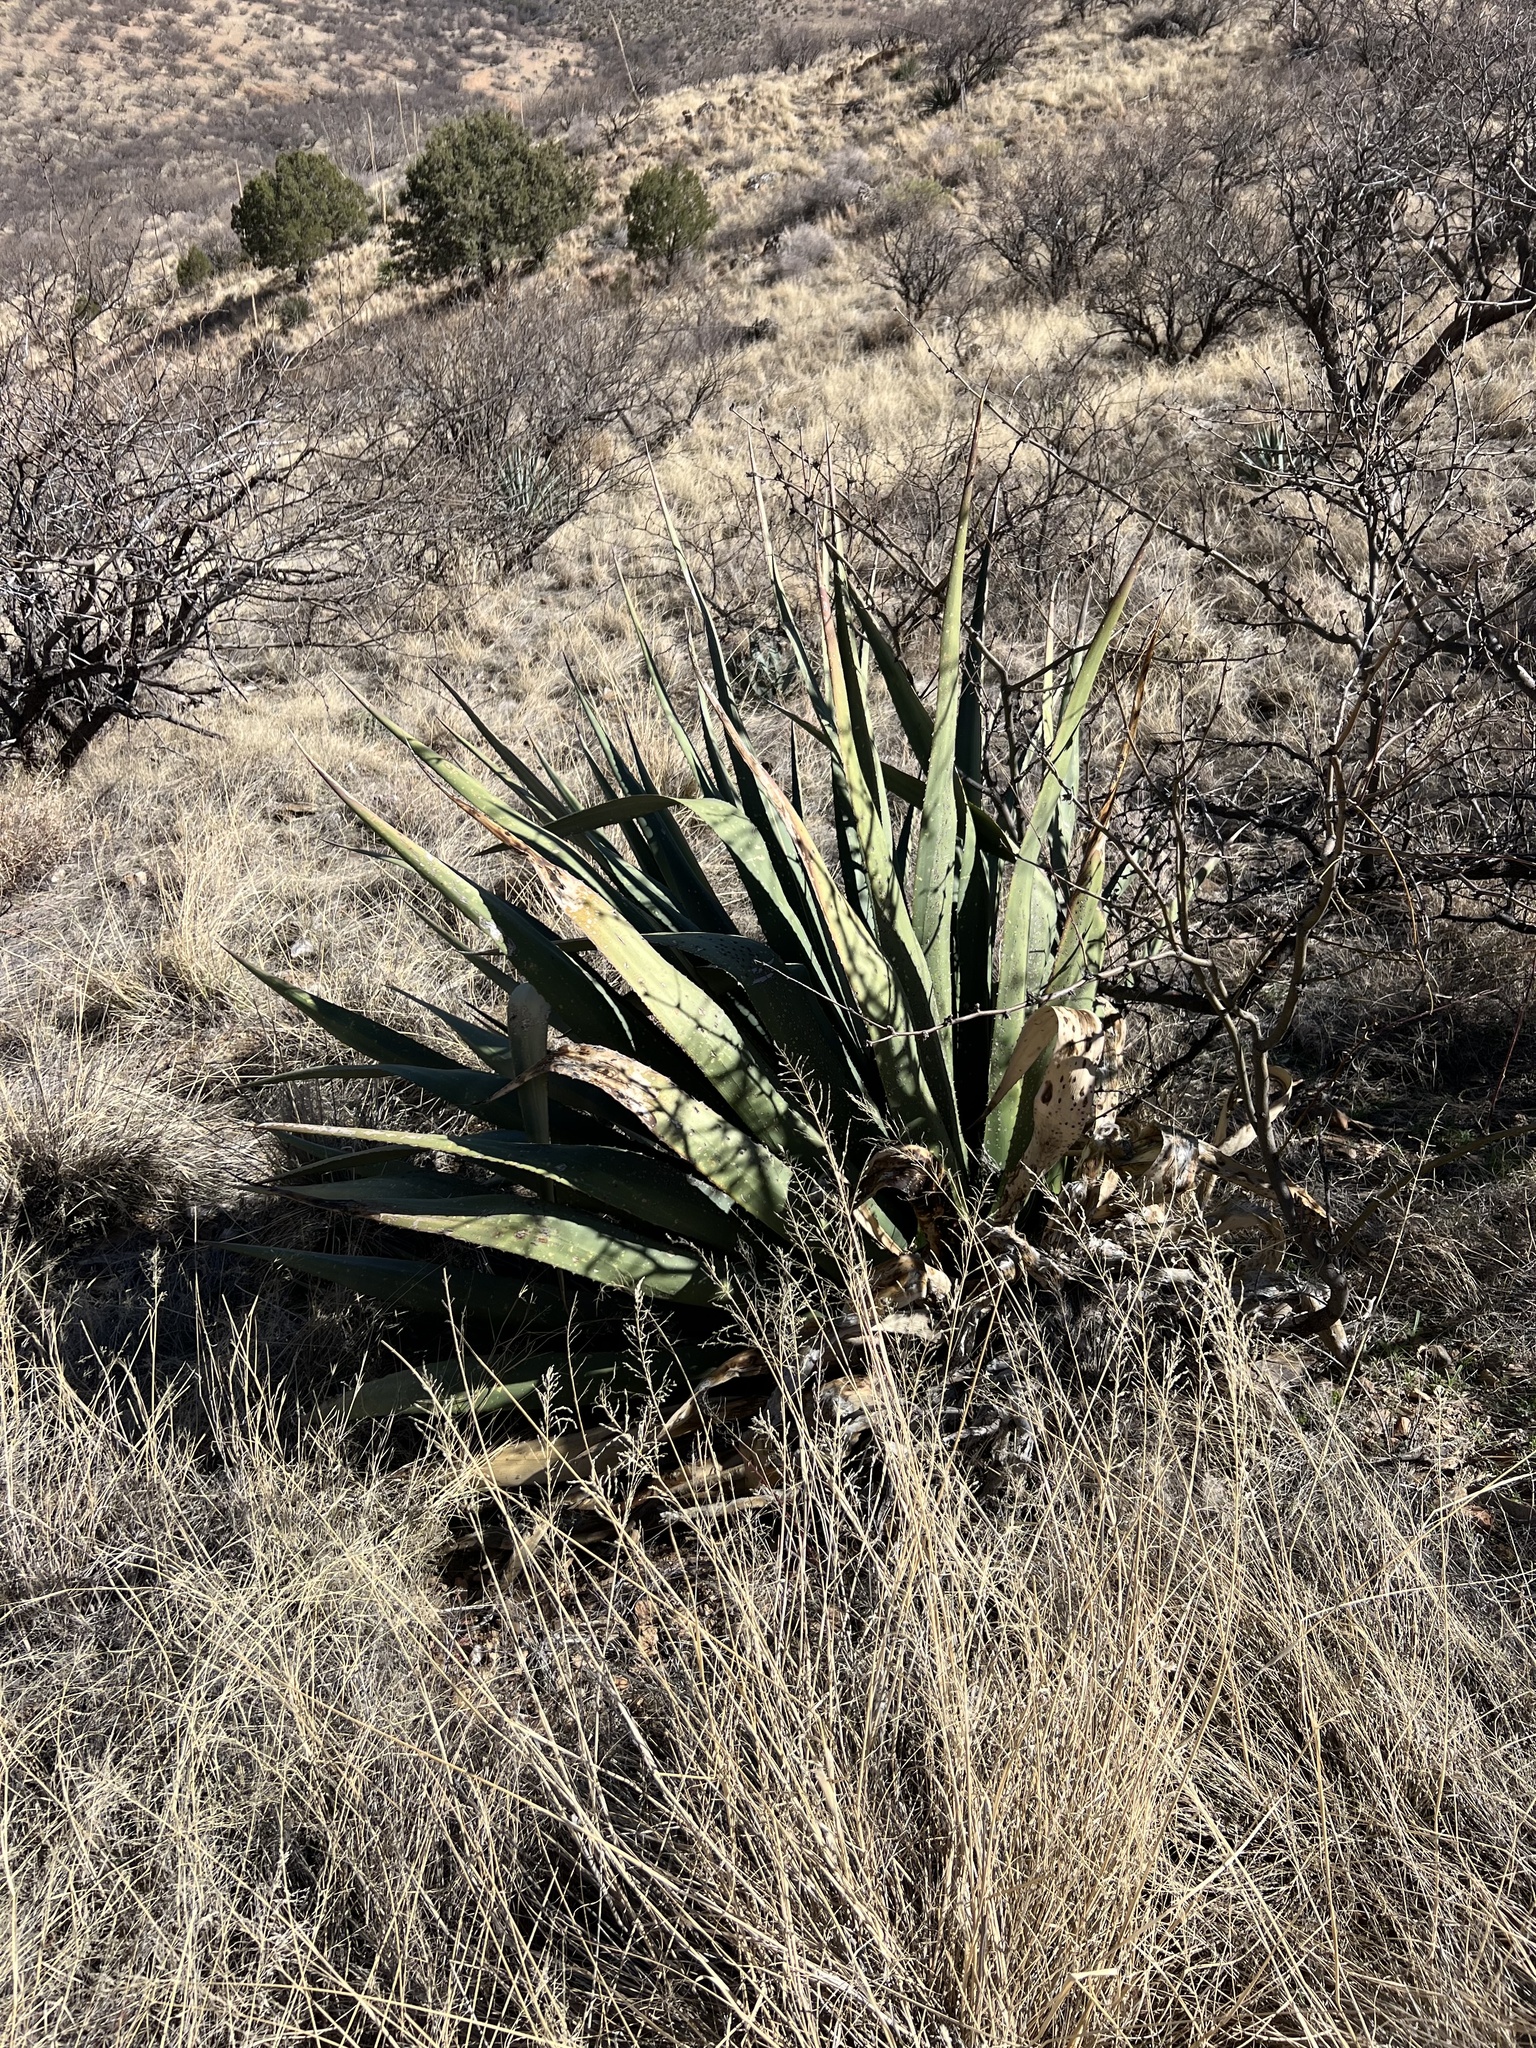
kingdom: Plantae
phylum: Tracheophyta
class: Liliopsida
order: Asparagales
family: Asparagaceae
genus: Agave
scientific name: Agave palmeri
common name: Palmer agave
